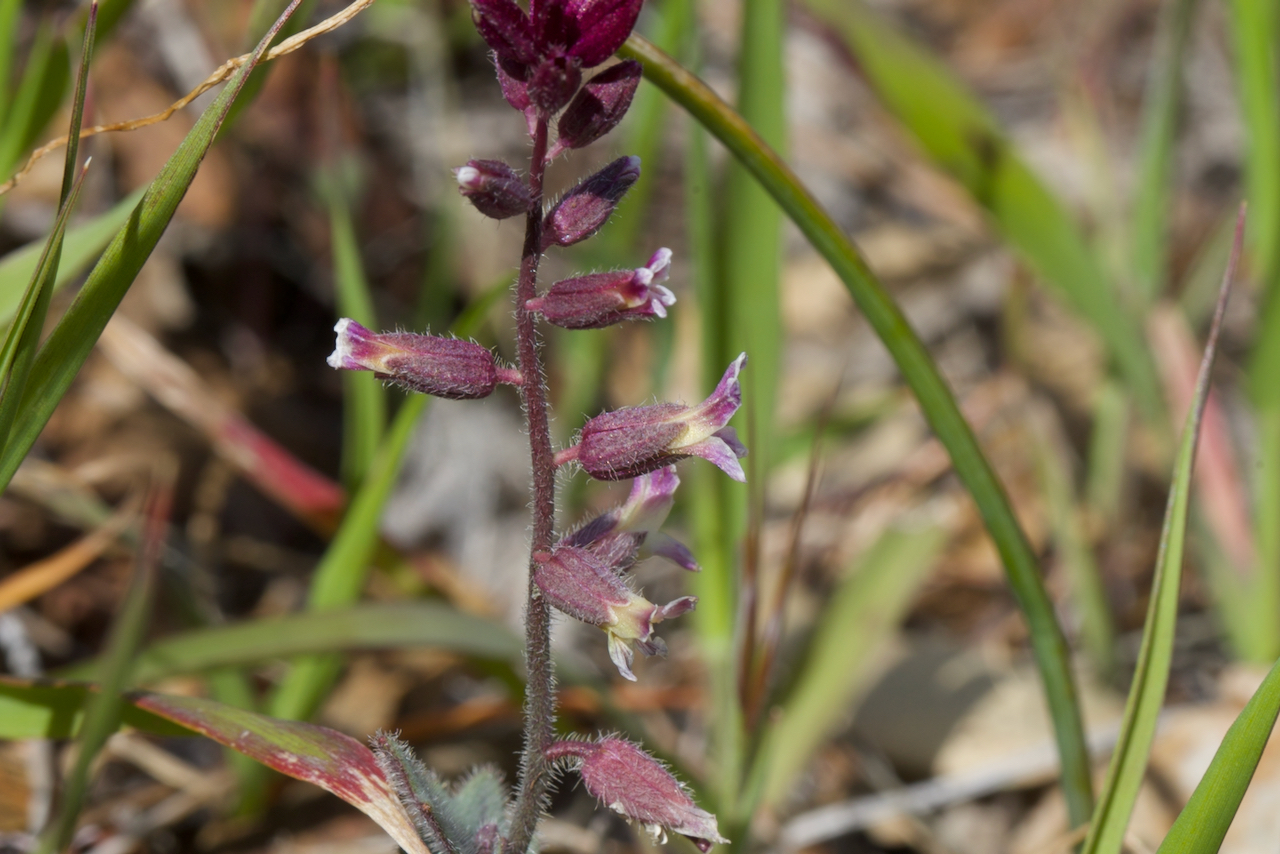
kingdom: Plantae
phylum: Tracheophyta
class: Magnoliopsida
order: Brassicales
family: Brassicaceae
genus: Streptanthus
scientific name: Streptanthus hispidus
